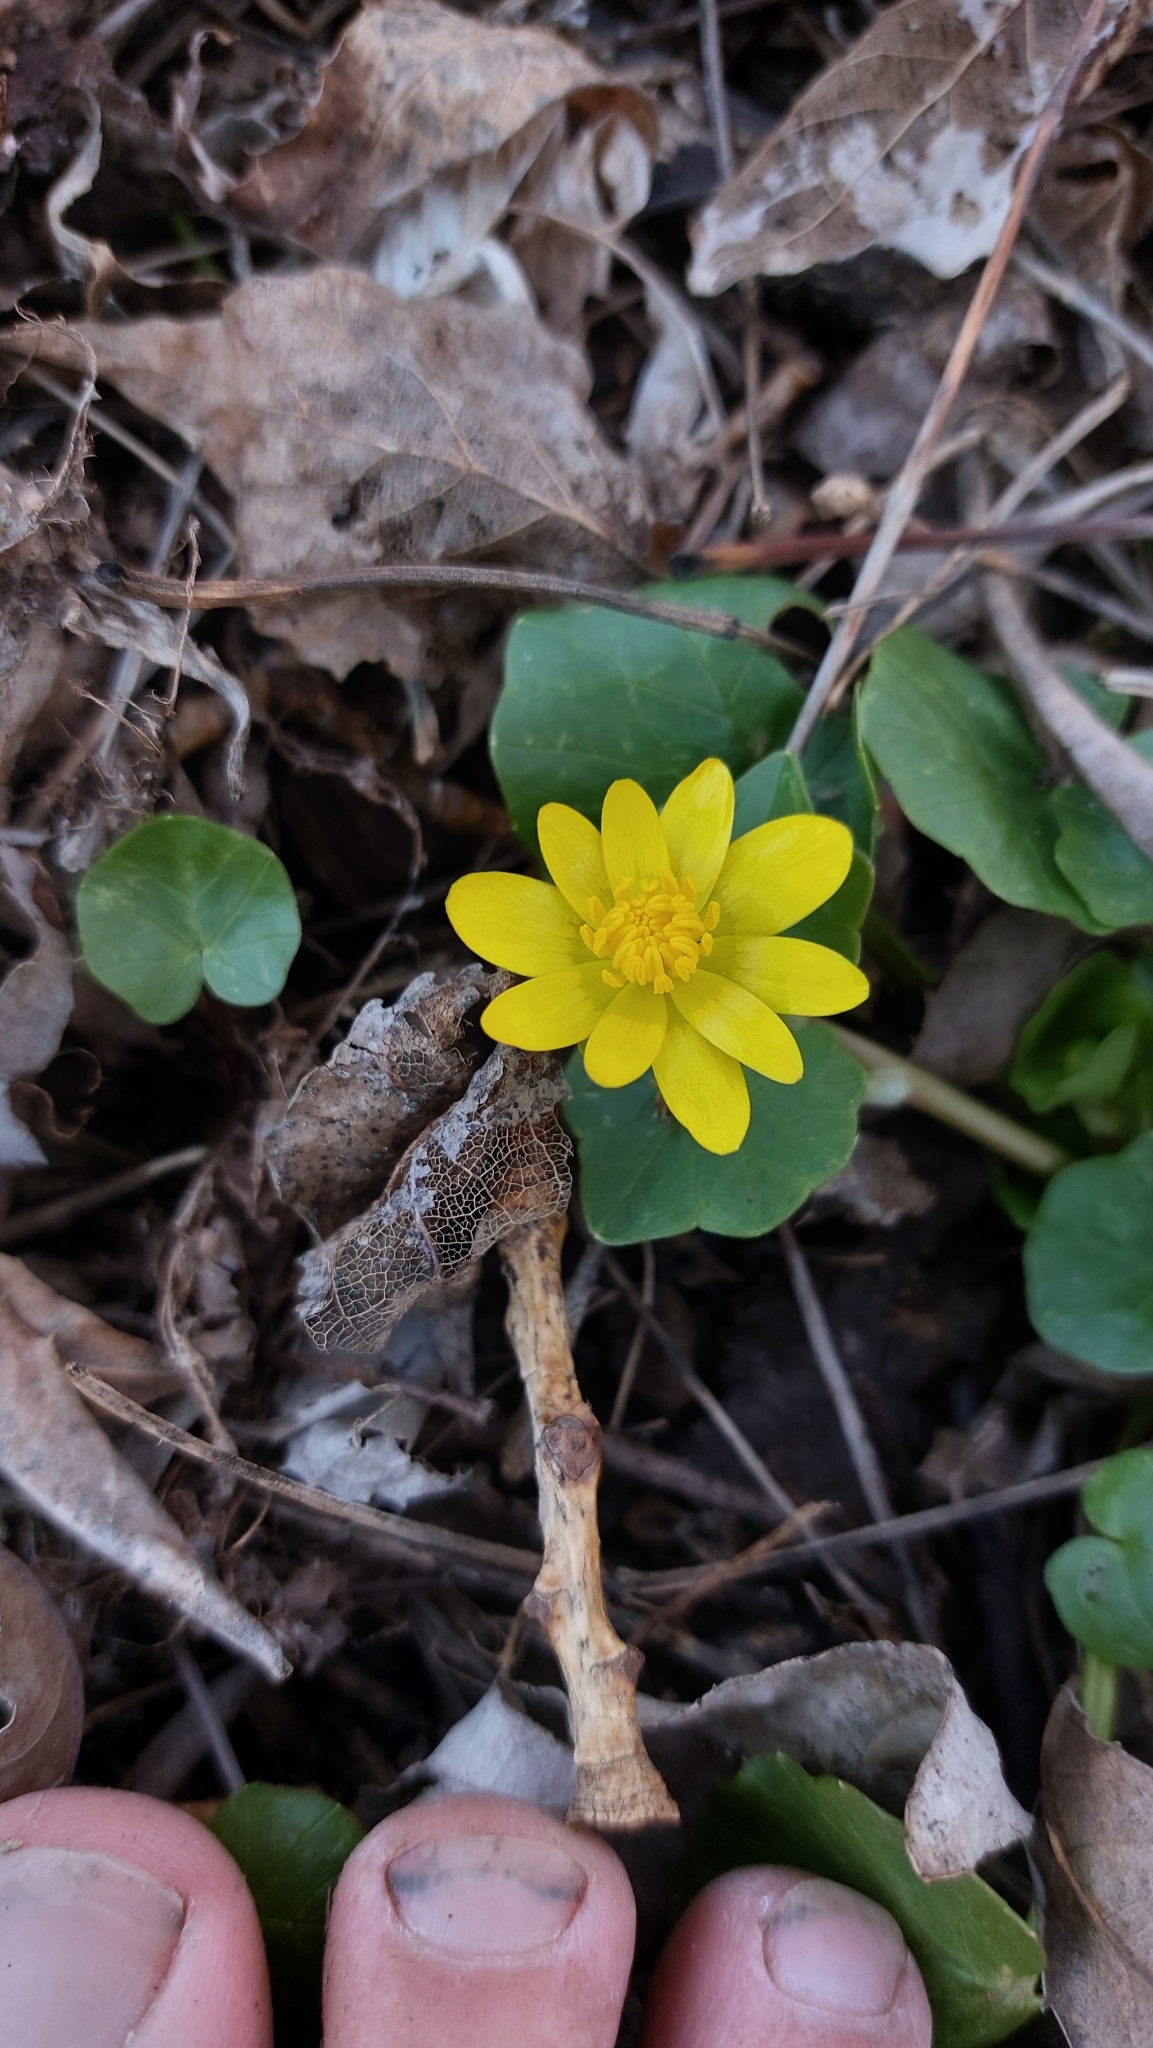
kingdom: Plantae
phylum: Tracheophyta
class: Magnoliopsida
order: Ranunculales
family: Ranunculaceae
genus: Ficaria
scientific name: Ficaria verna
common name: Lesser celandine
